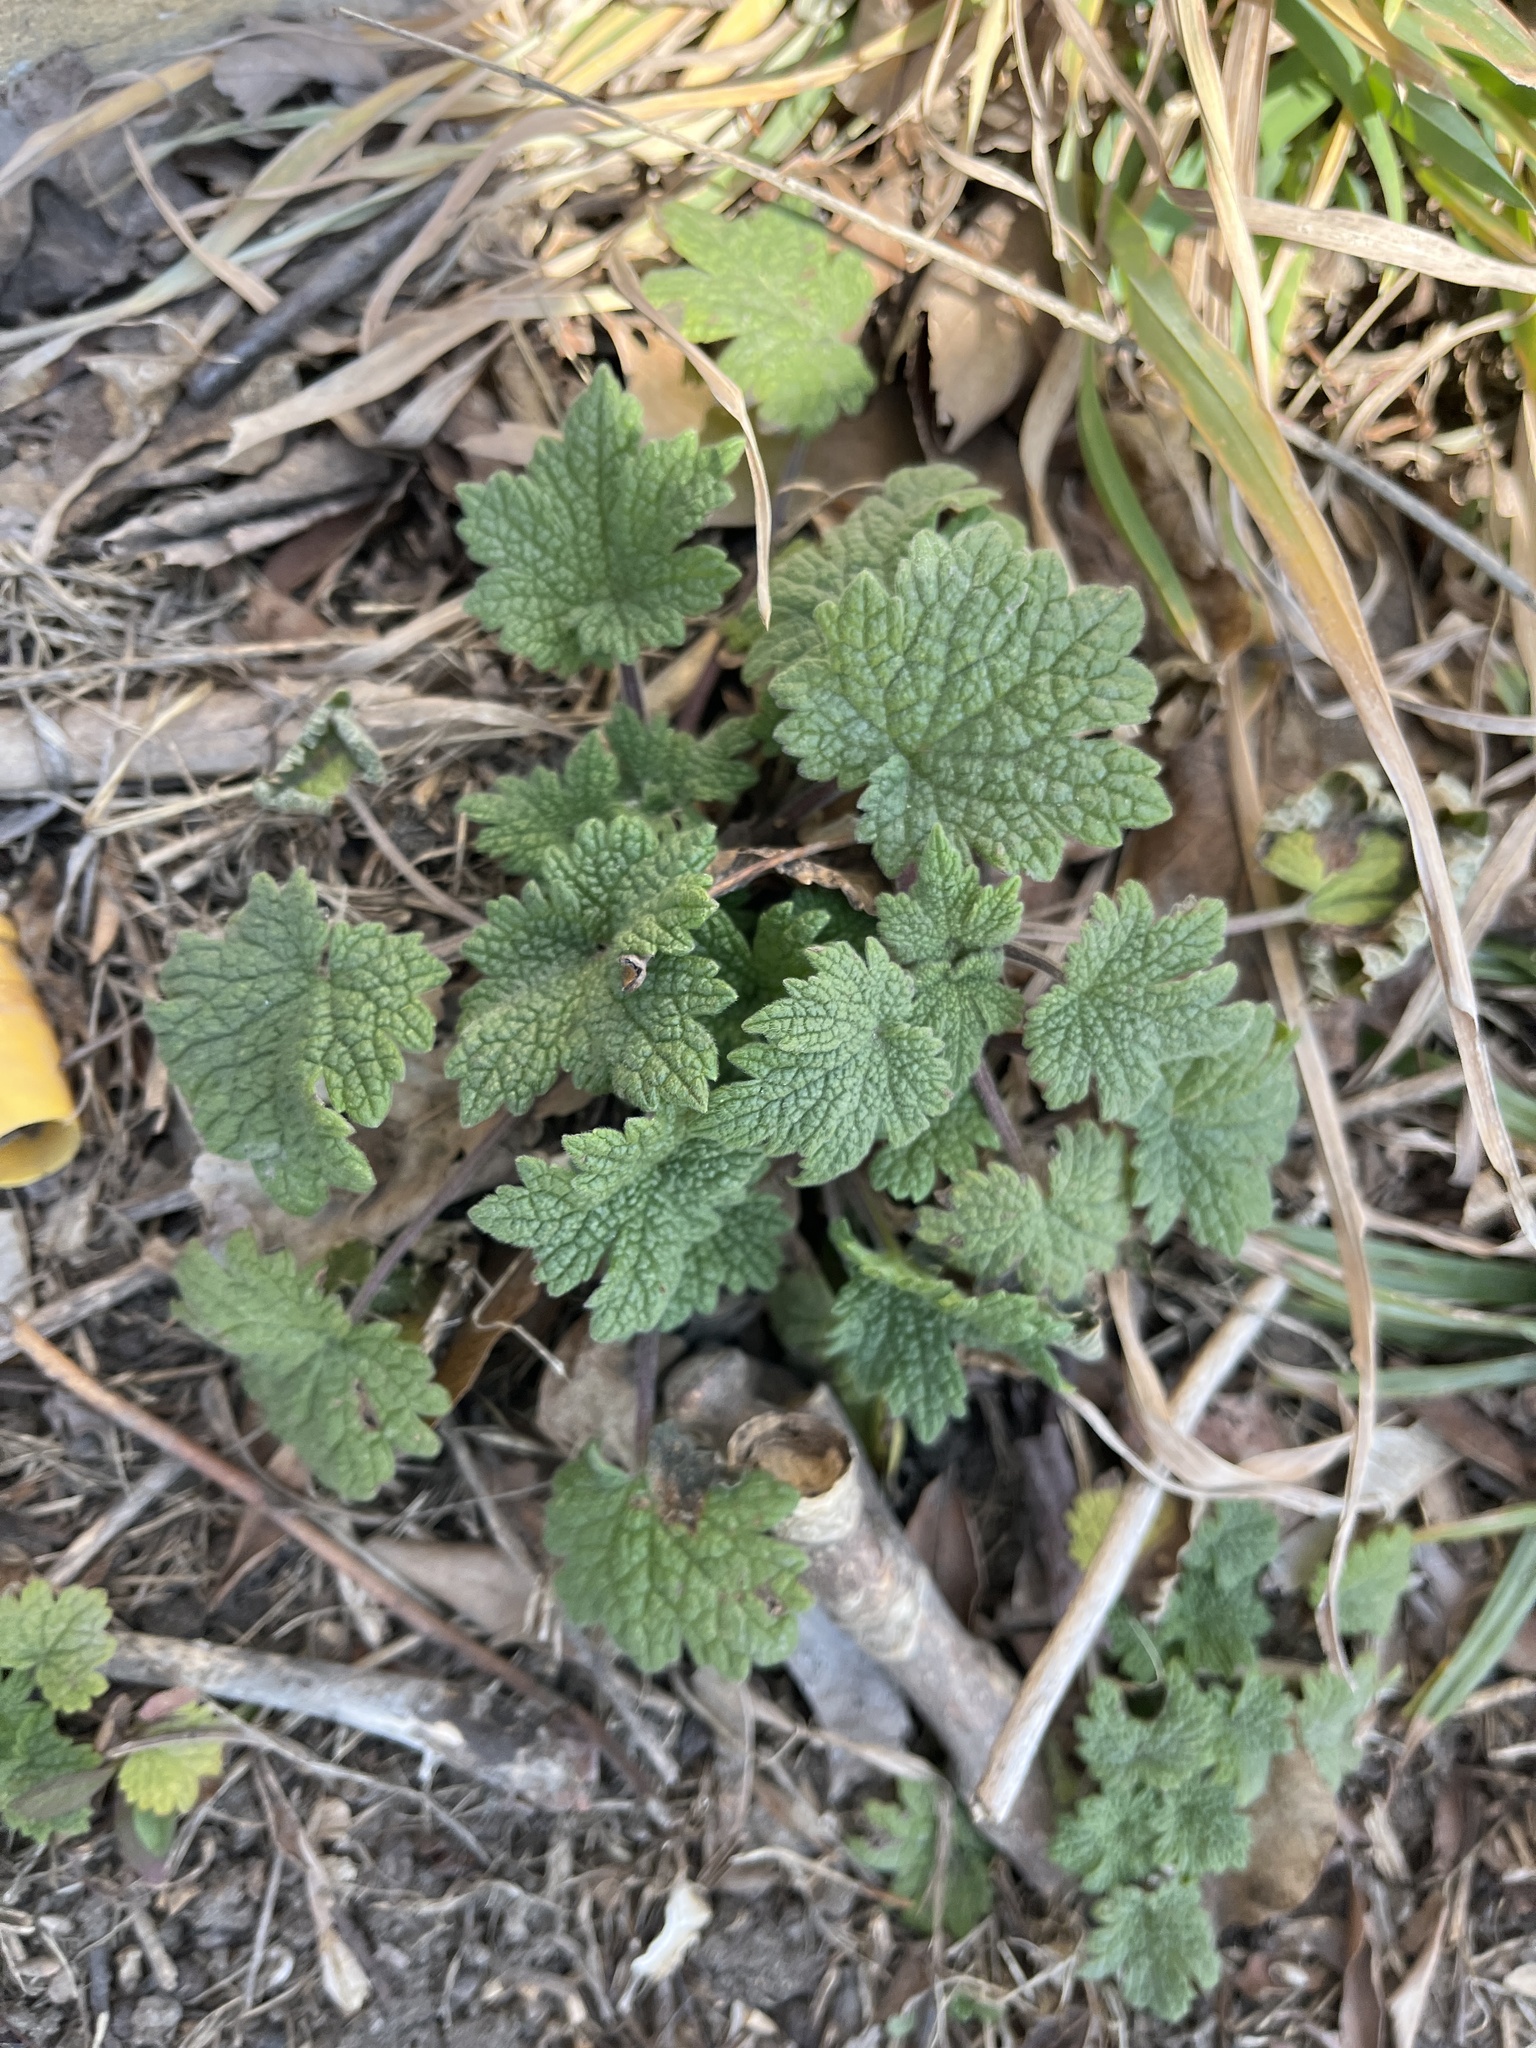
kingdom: Plantae
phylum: Tracheophyta
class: Magnoliopsida
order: Lamiales
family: Lamiaceae
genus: Leonurus
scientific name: Leonurus cardiaca
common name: Motherwort
